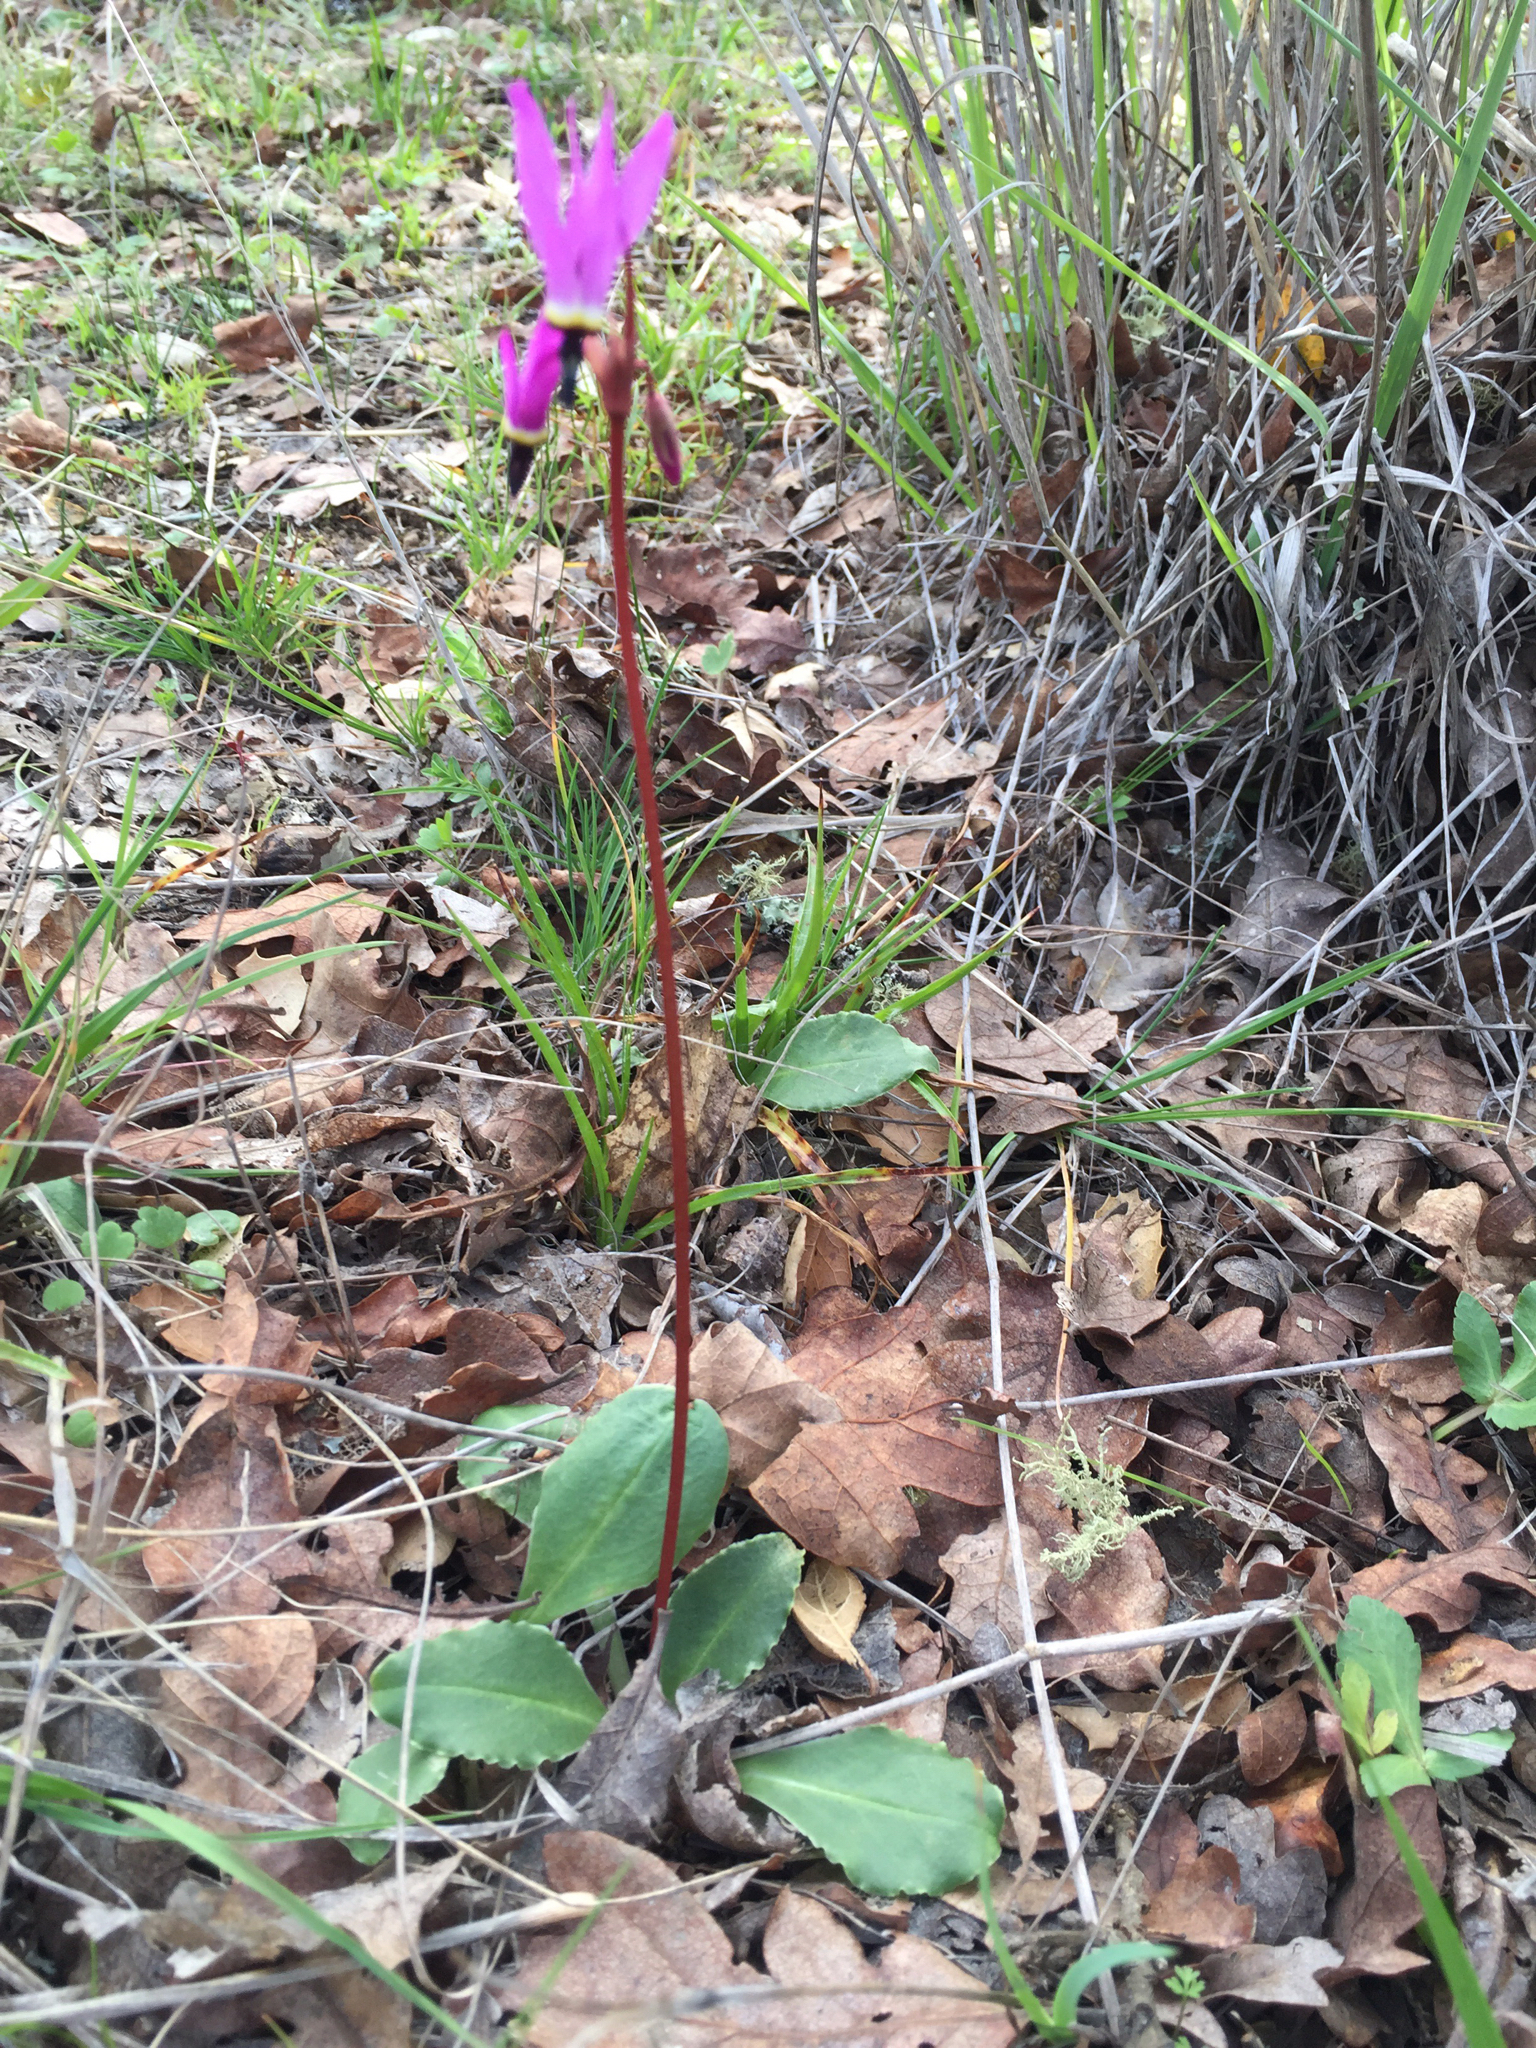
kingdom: Plantae
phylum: Tracheophyta
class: Magnoliopsida
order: Ericales
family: Primulaceae
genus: Dodecatheon
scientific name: Dodecatheon hendersonii
